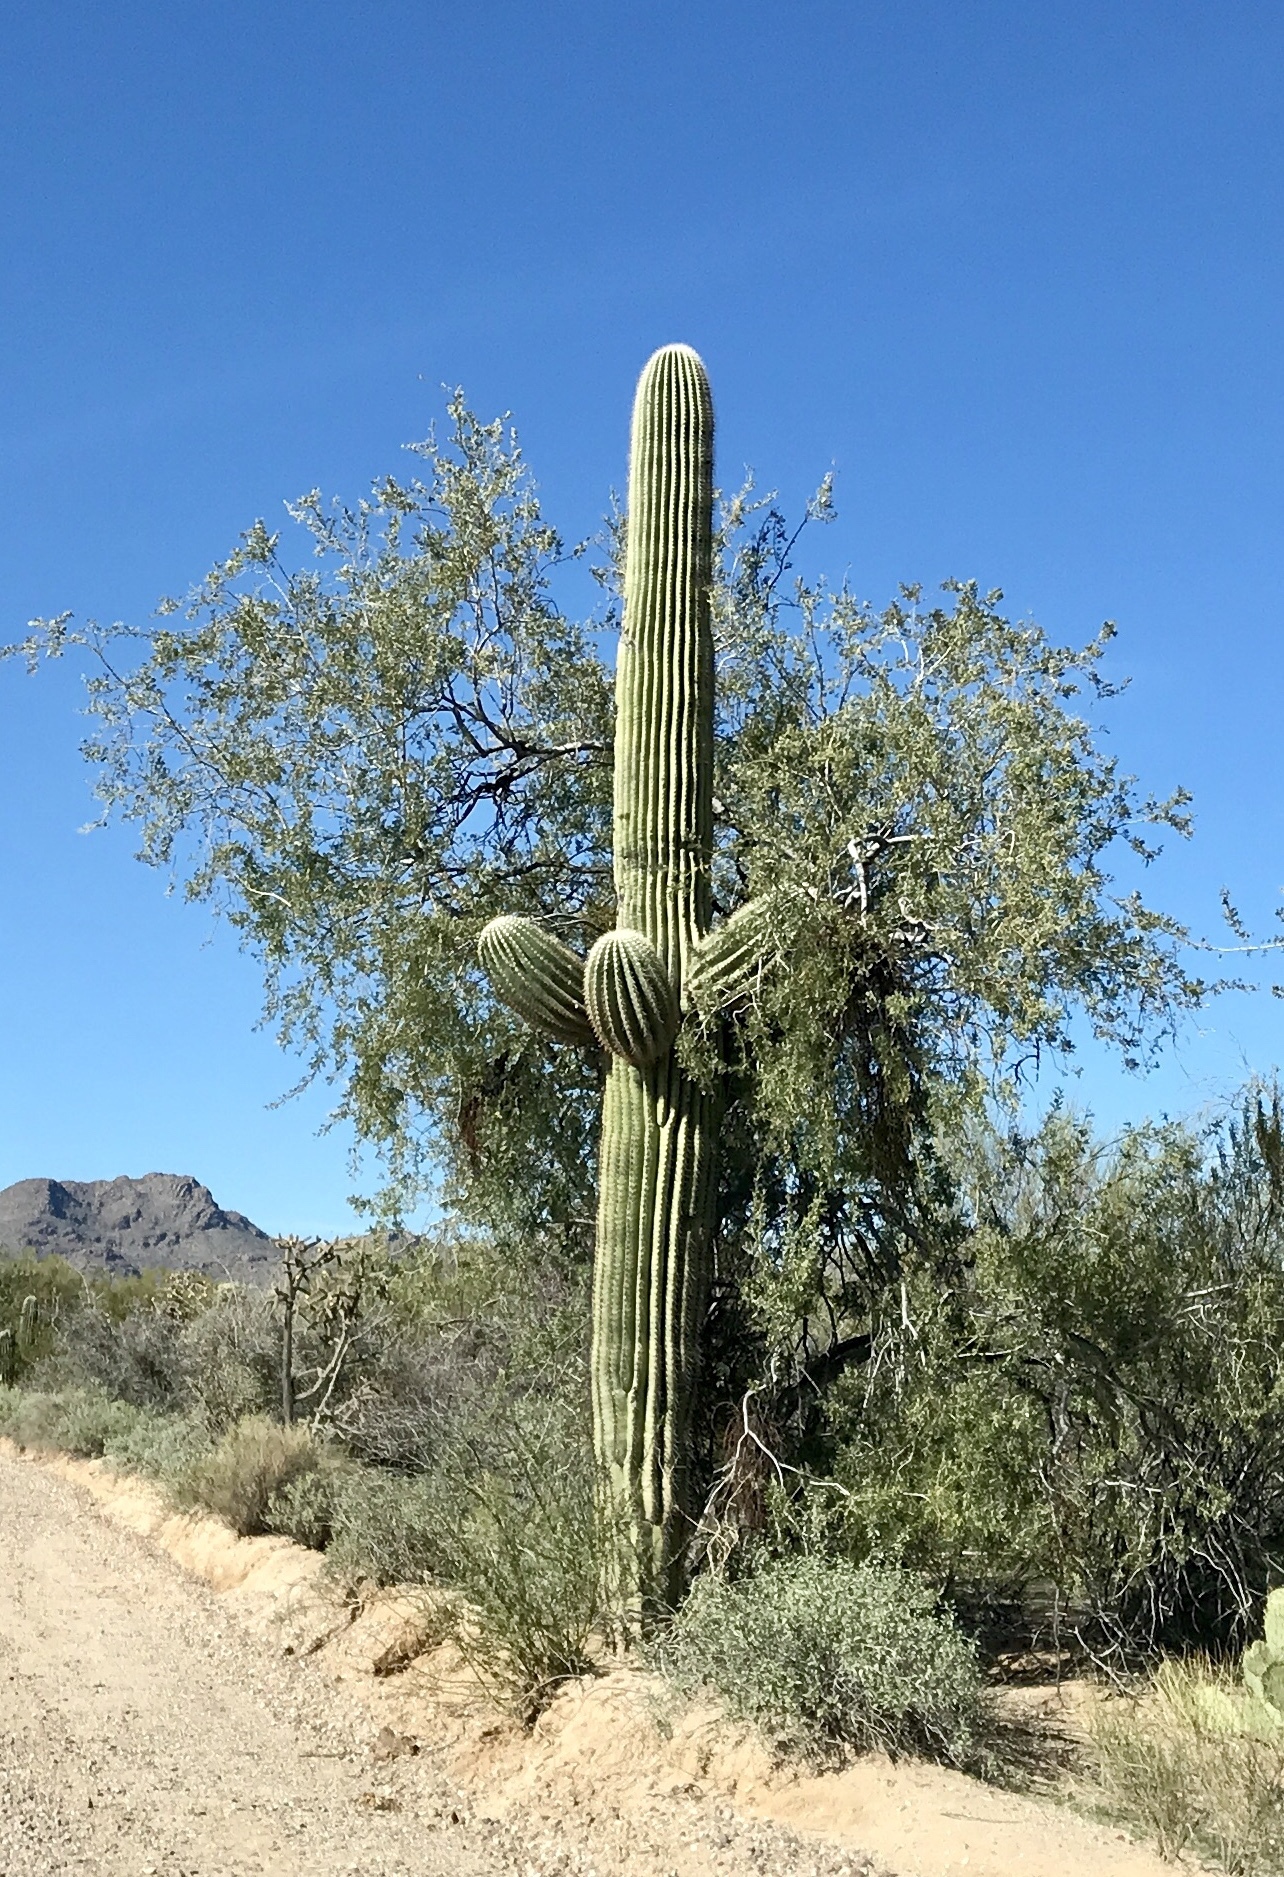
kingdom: Plantae
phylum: Tracheophyta
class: Magnoliopsida
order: Fabales
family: Fabaceae
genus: Olneya
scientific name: Olneya tesota
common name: Desert ironwood
